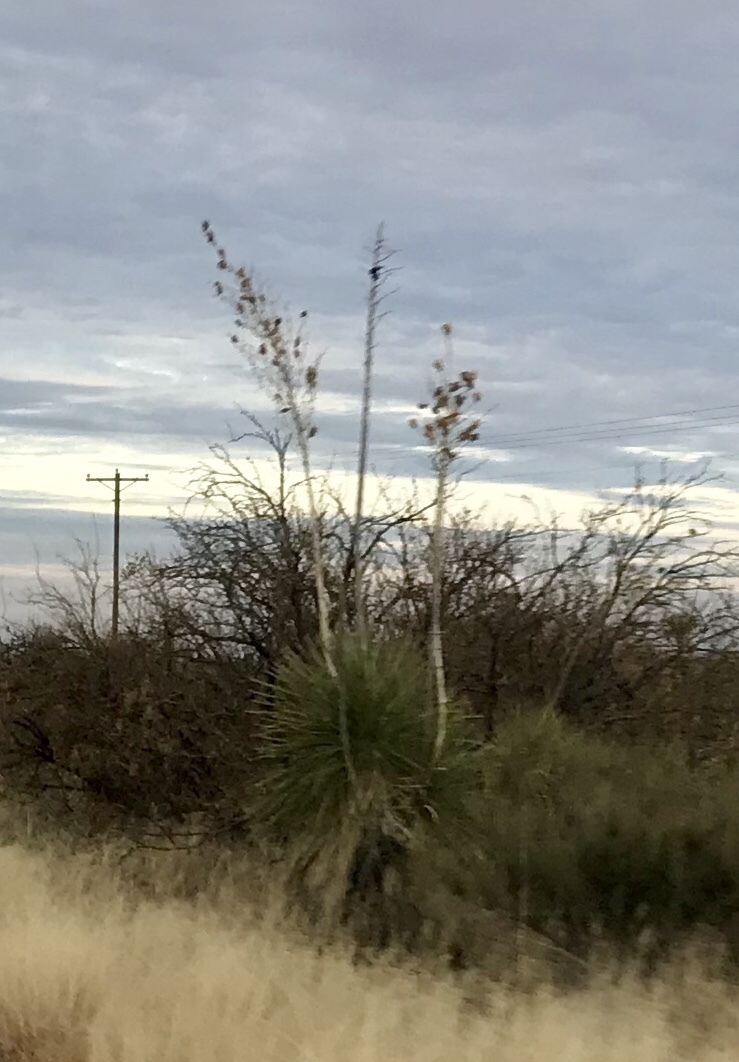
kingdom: Plantae
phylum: Tracheophyta
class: Liliopsida
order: Asparagales
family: Asparagaceae
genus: Yucca
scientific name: Yucca elata
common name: Palmella
